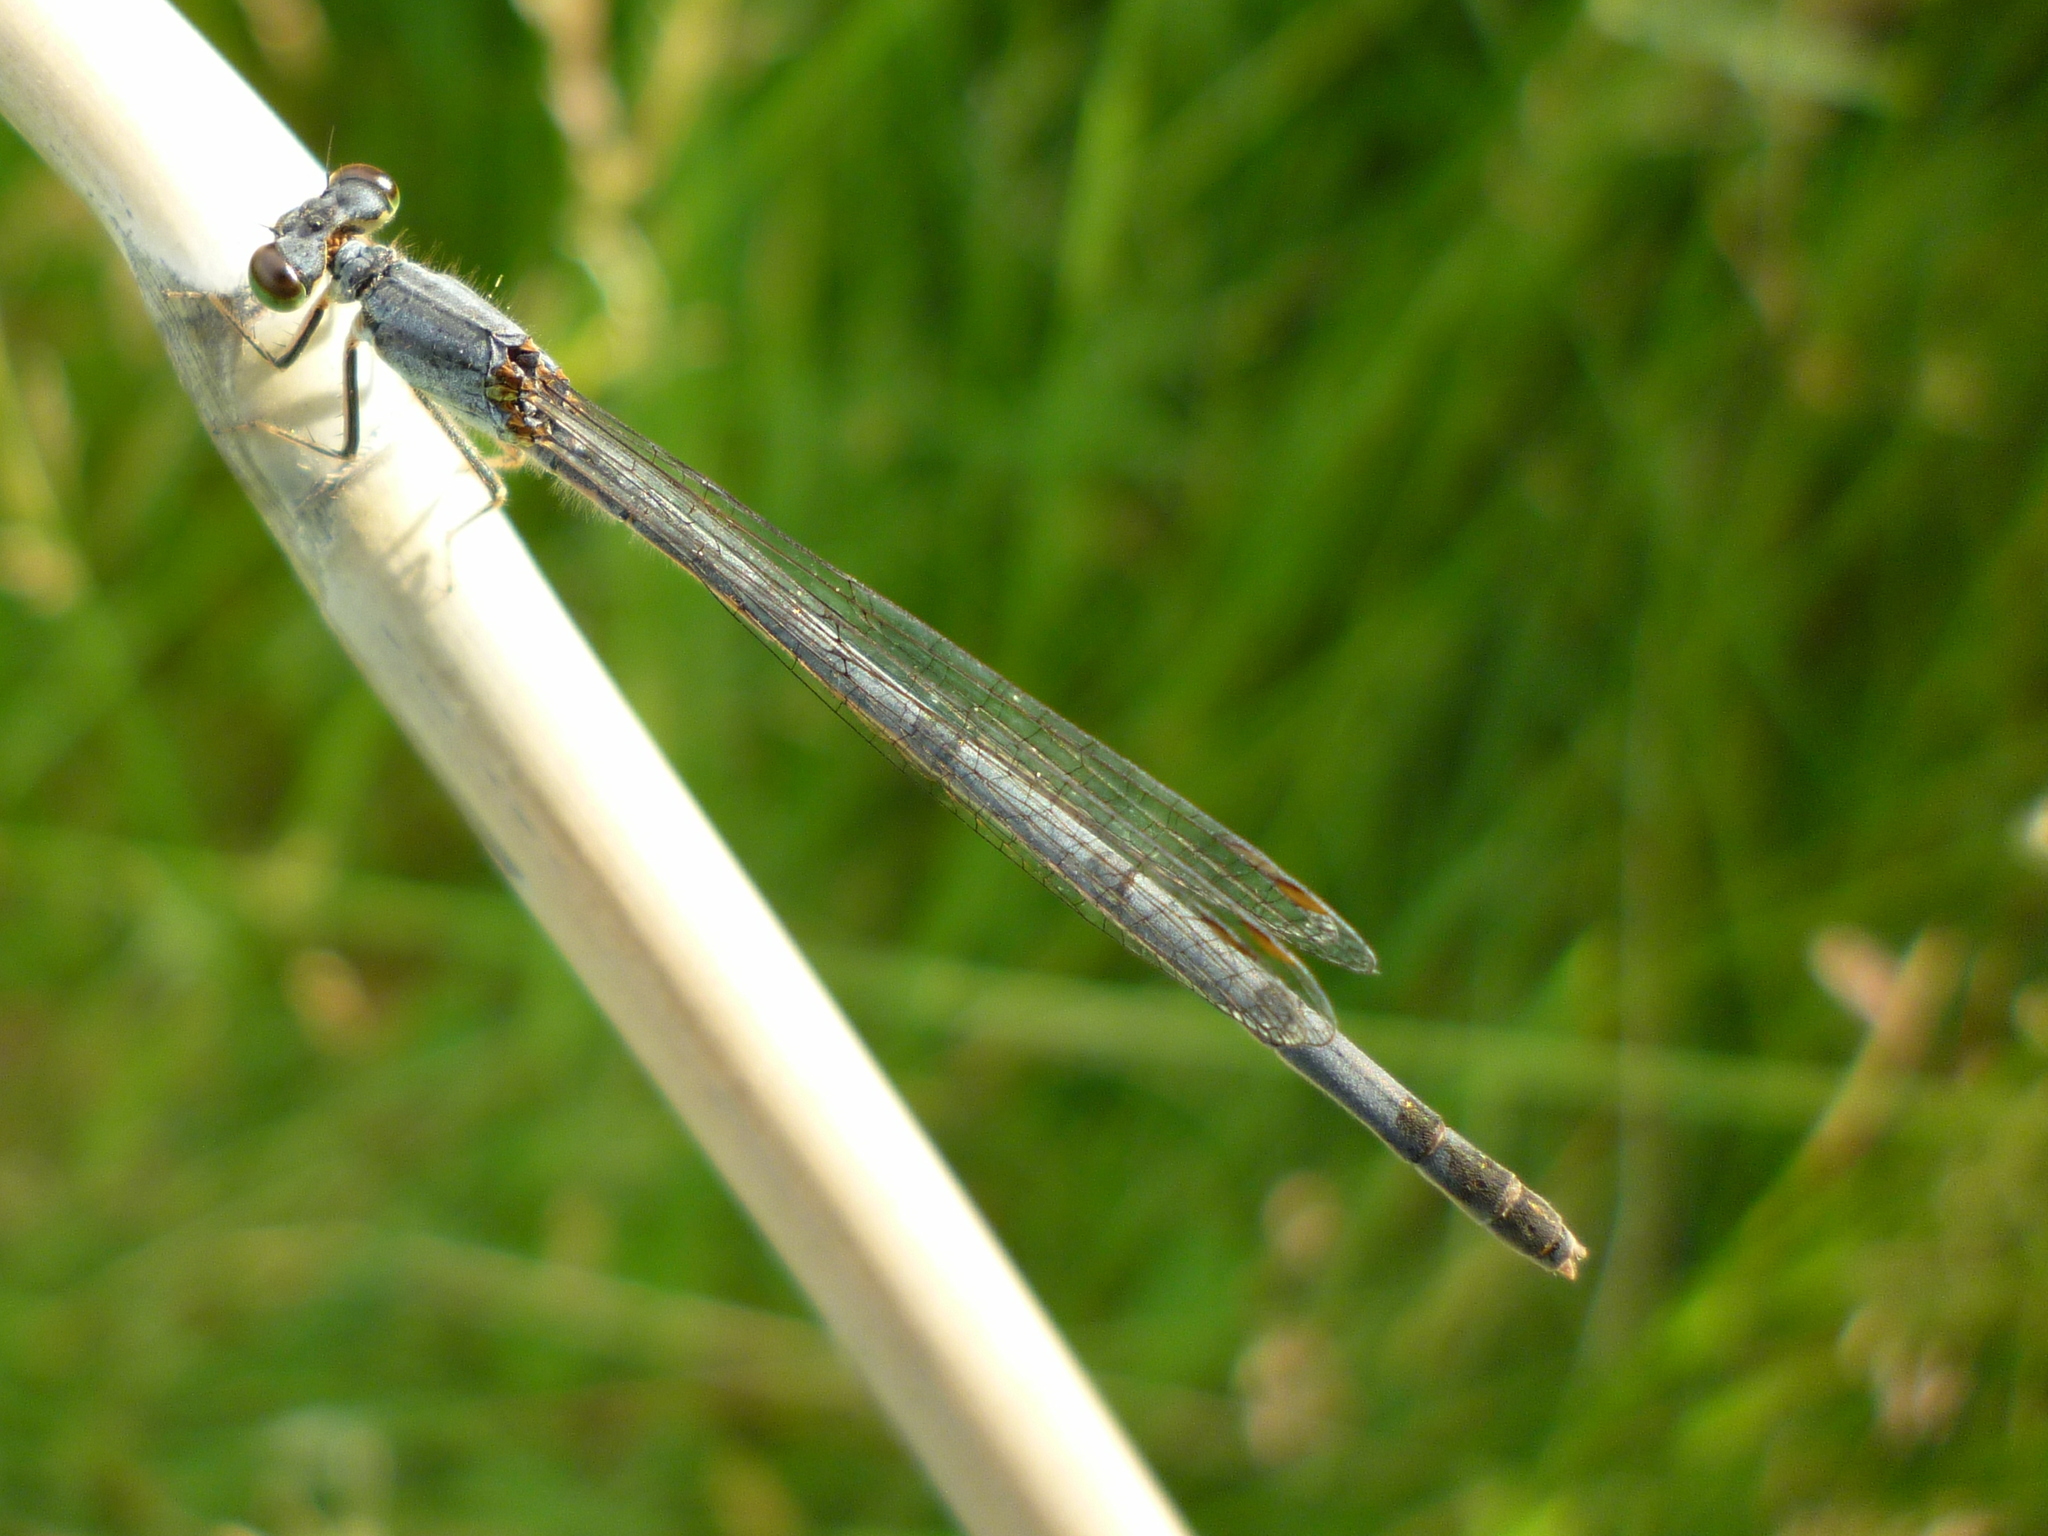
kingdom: Animalia
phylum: Arthropoda
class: Insecta
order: Odonata
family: Coenagrionidae
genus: Ischnura
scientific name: Ischnura verticalis
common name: Eastern forktail
